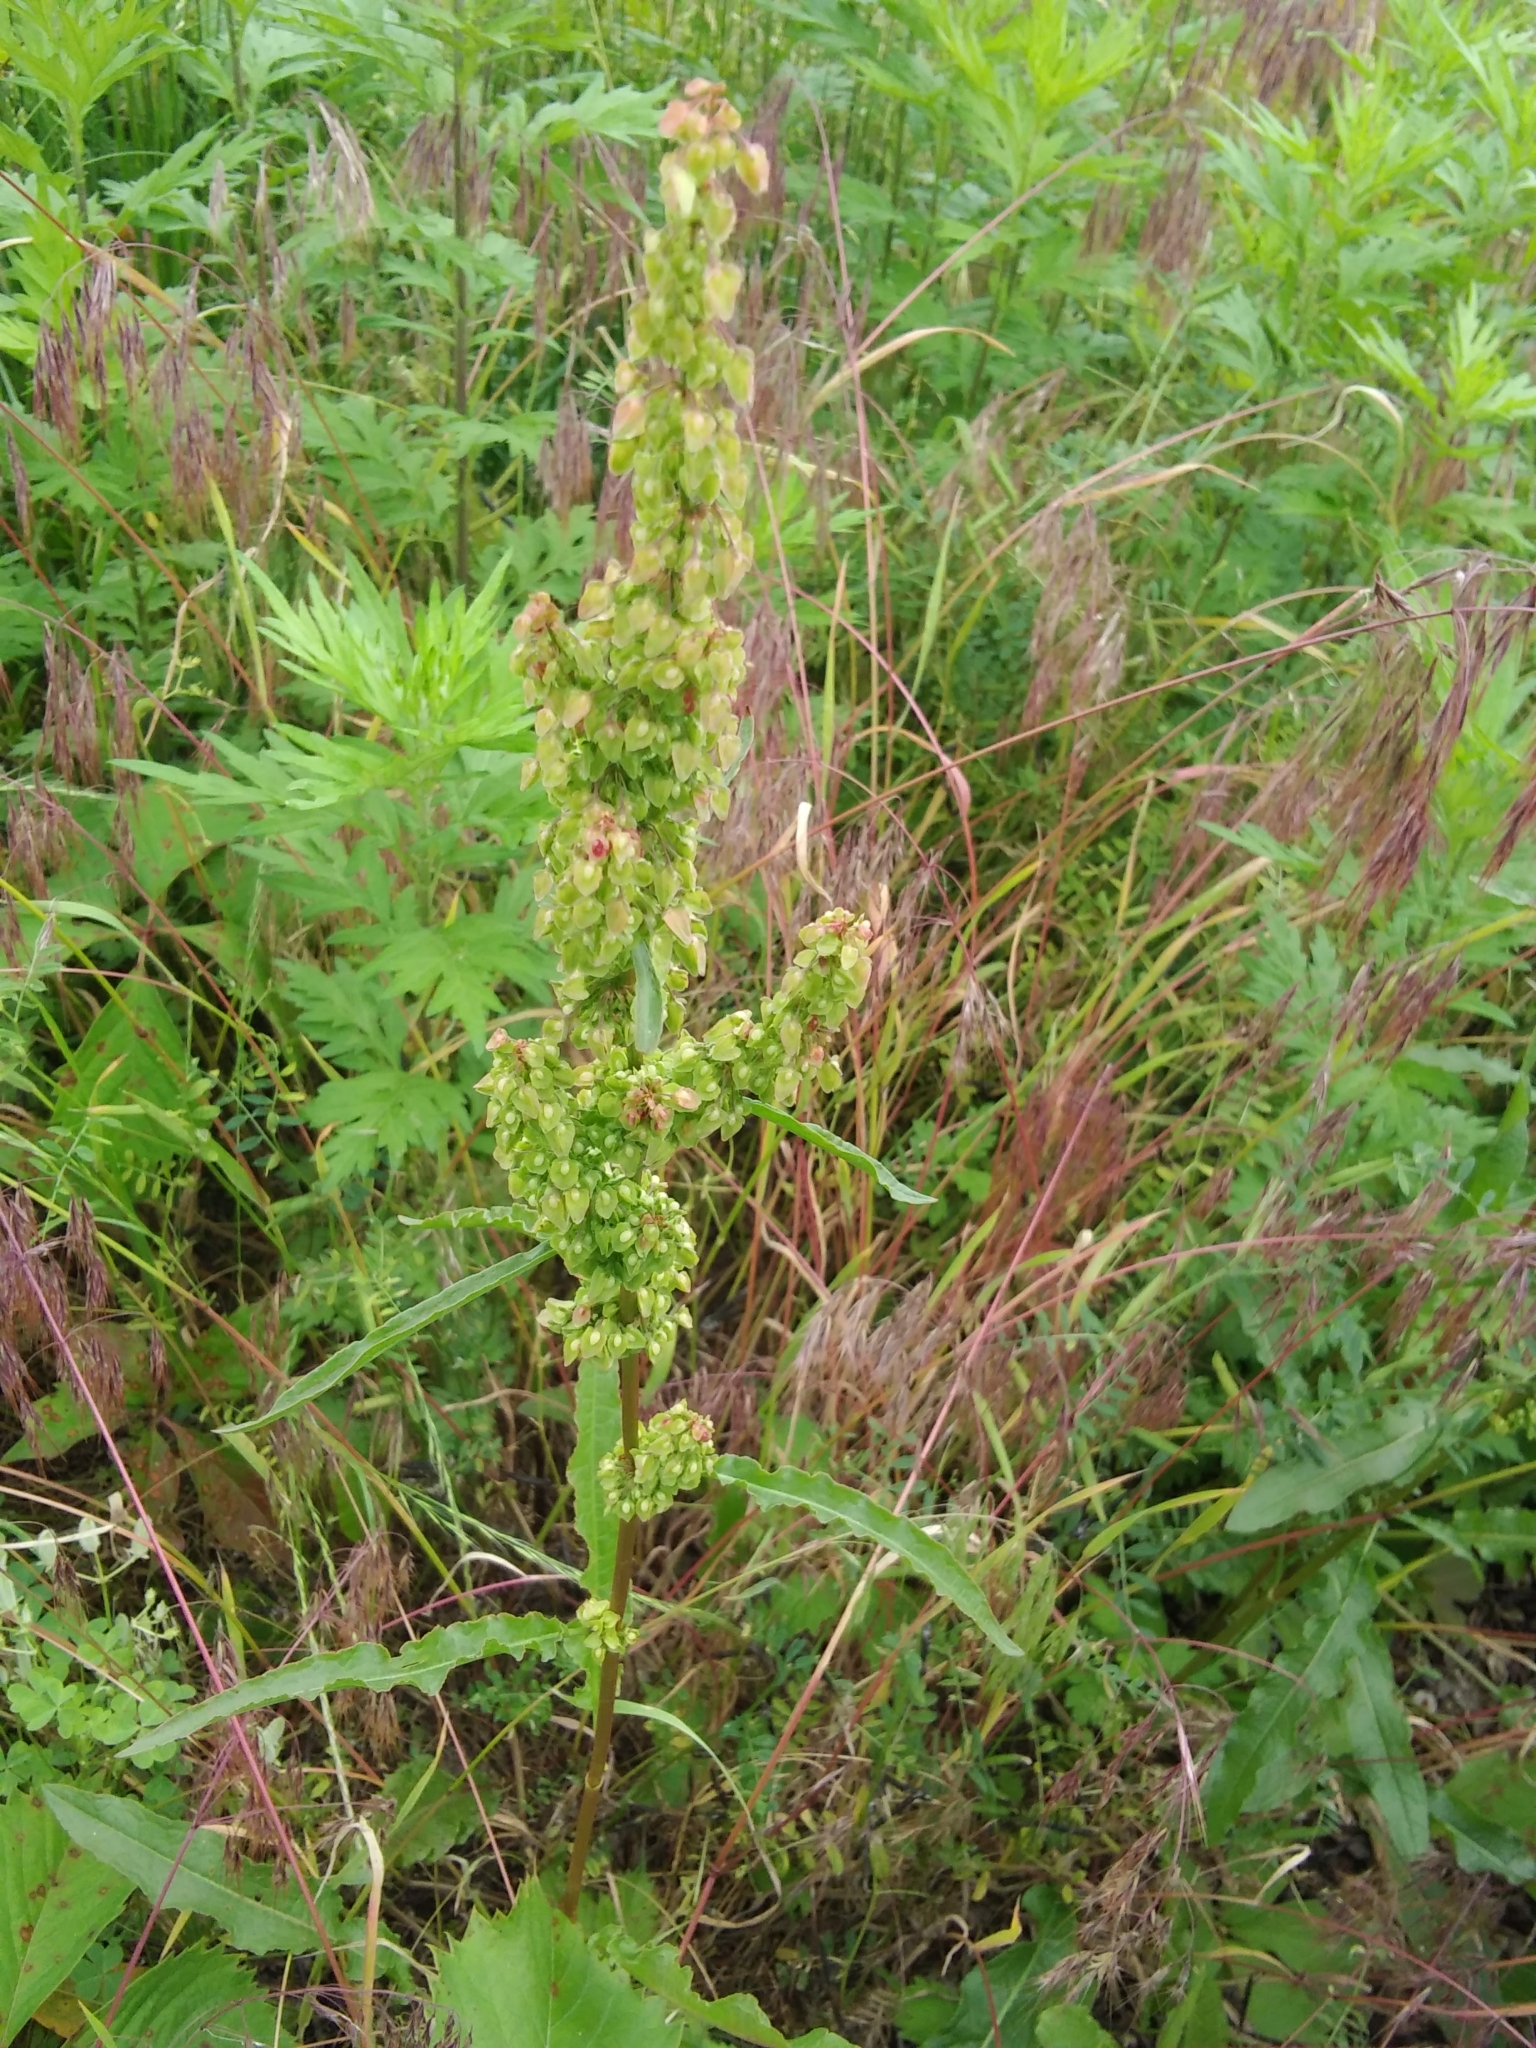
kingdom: Plantae
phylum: Tracheophyta
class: Magnoliopsida
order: Caryophyllales
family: Polygonaceae
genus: Rumex
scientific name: Rumex crispus
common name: Curled dock
